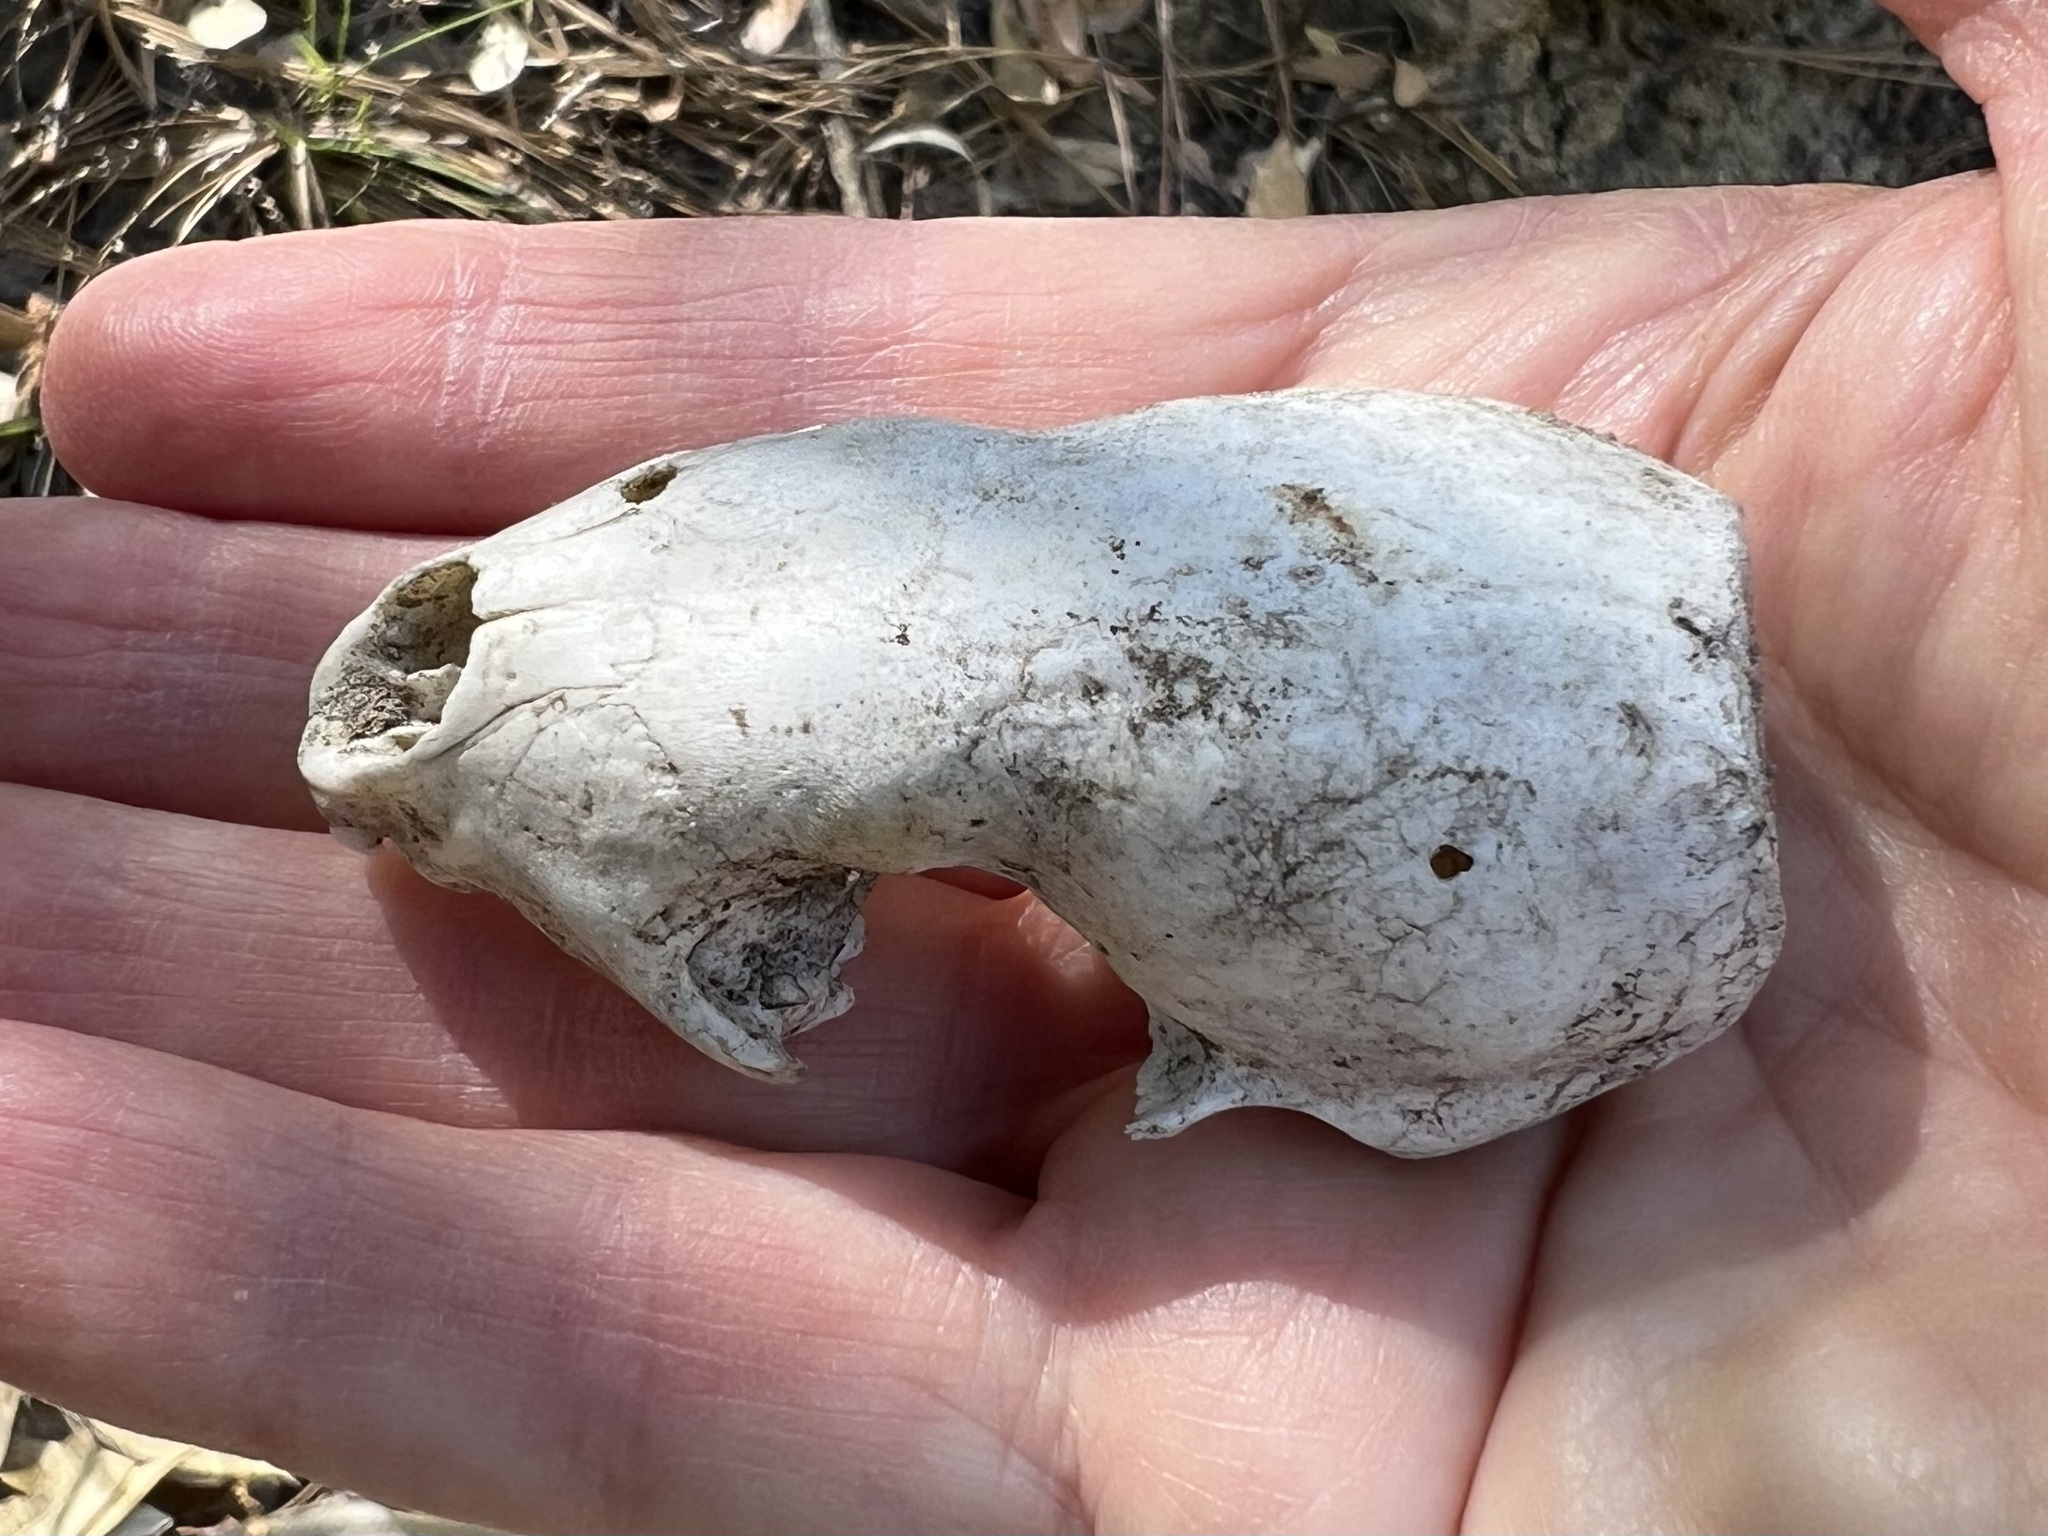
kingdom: Animalia
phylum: Chordata
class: Mammalia
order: Carnivora
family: Mephitidae
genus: Conepatus
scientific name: Conepatus leuconotus
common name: Eastern hog-nosed skunk
